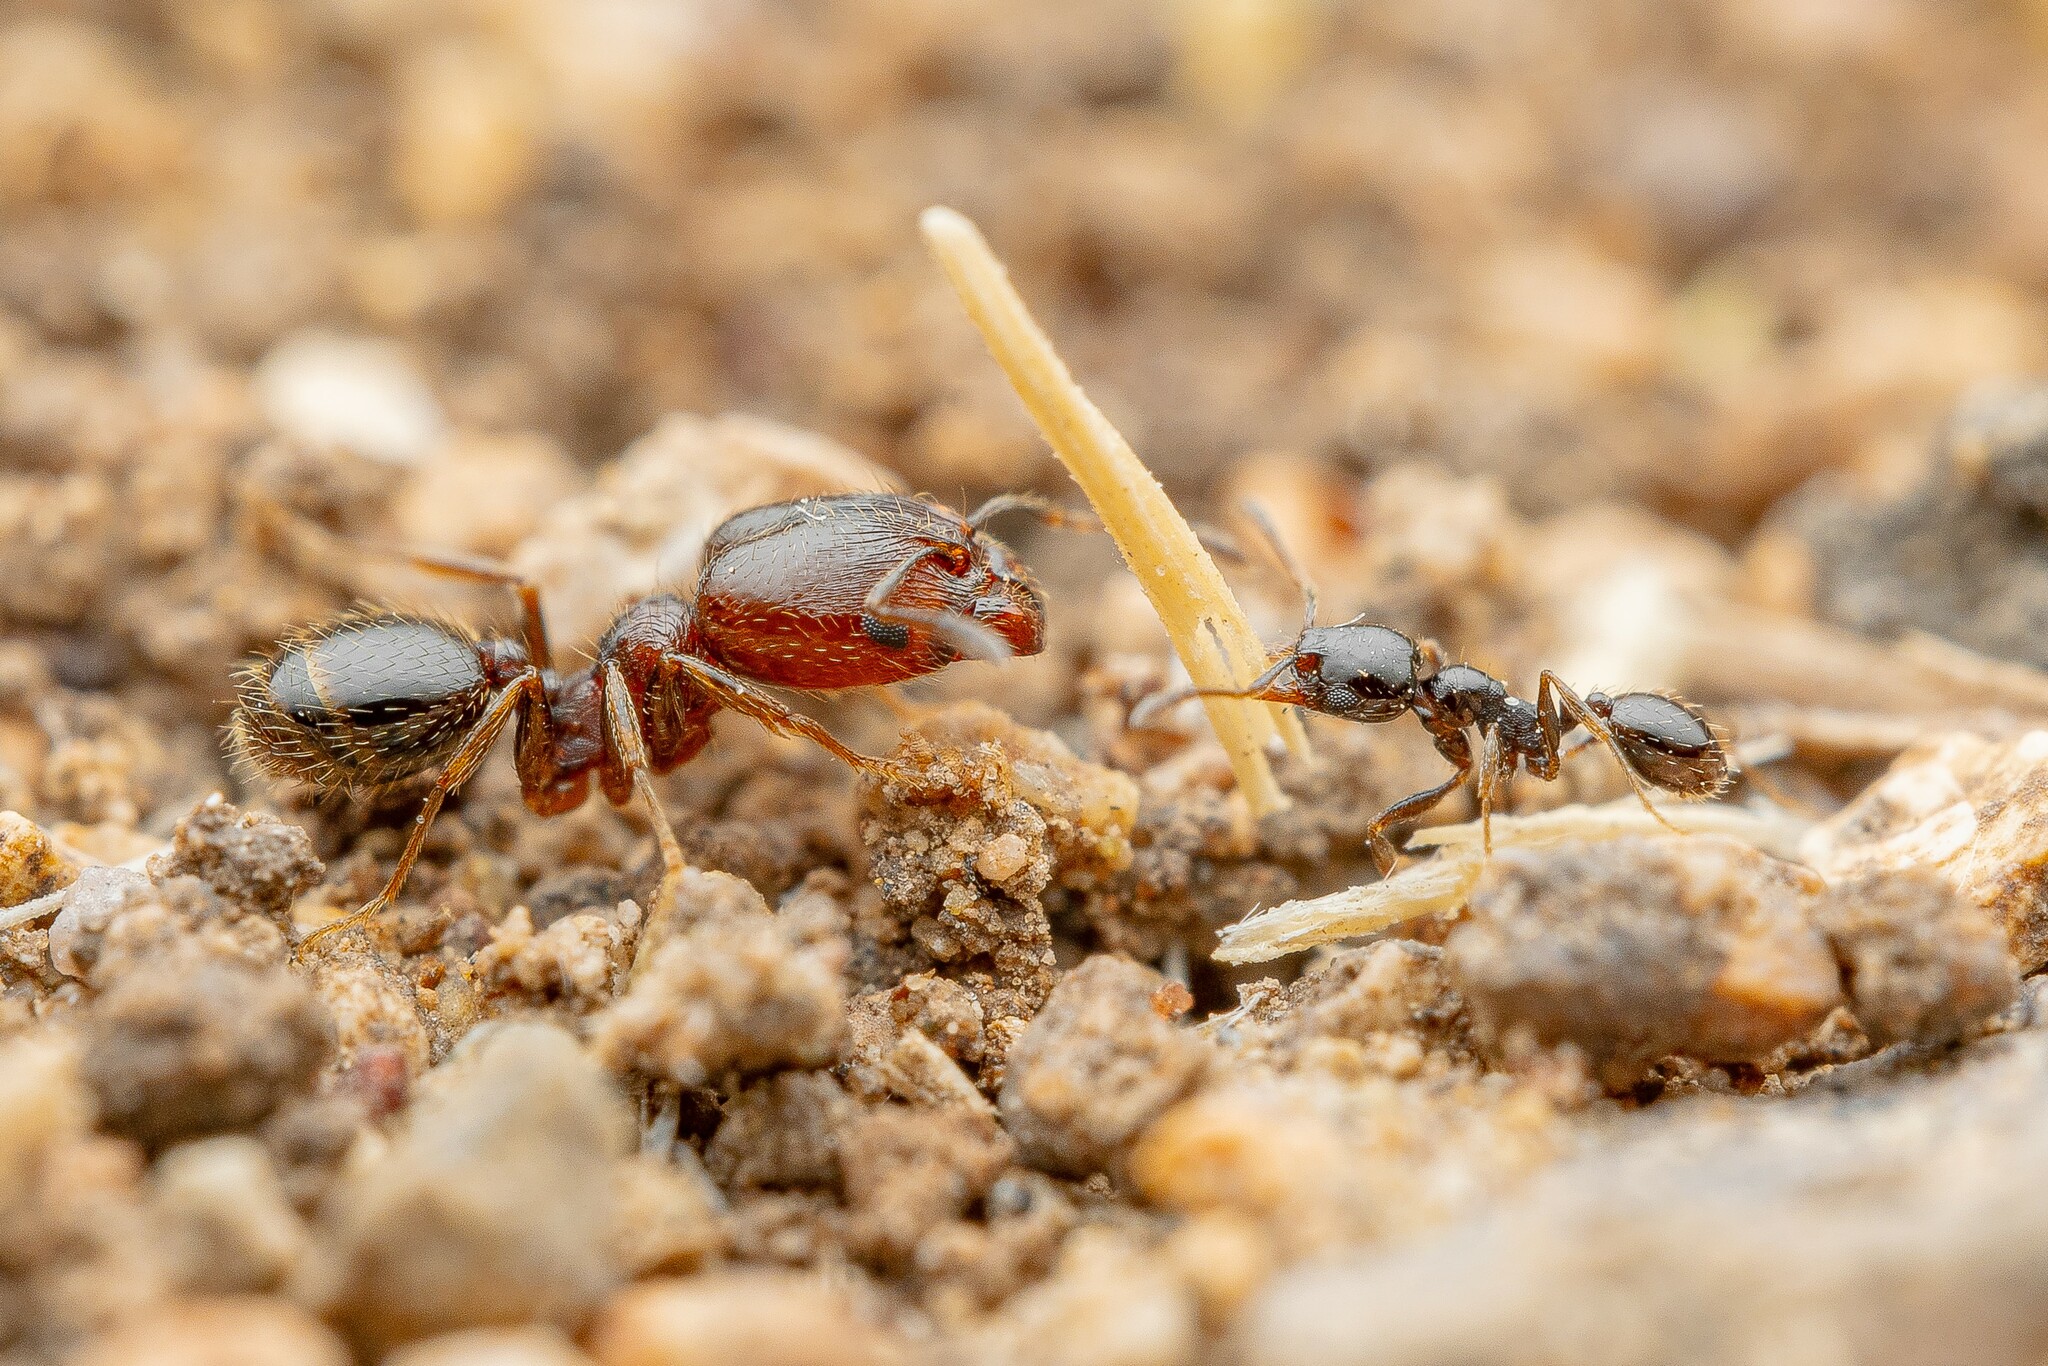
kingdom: Animalia
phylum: Arthropoda
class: Insecta
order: Hymenoptera
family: Formicidae
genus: Pheidole
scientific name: Pheidole rugulosa
